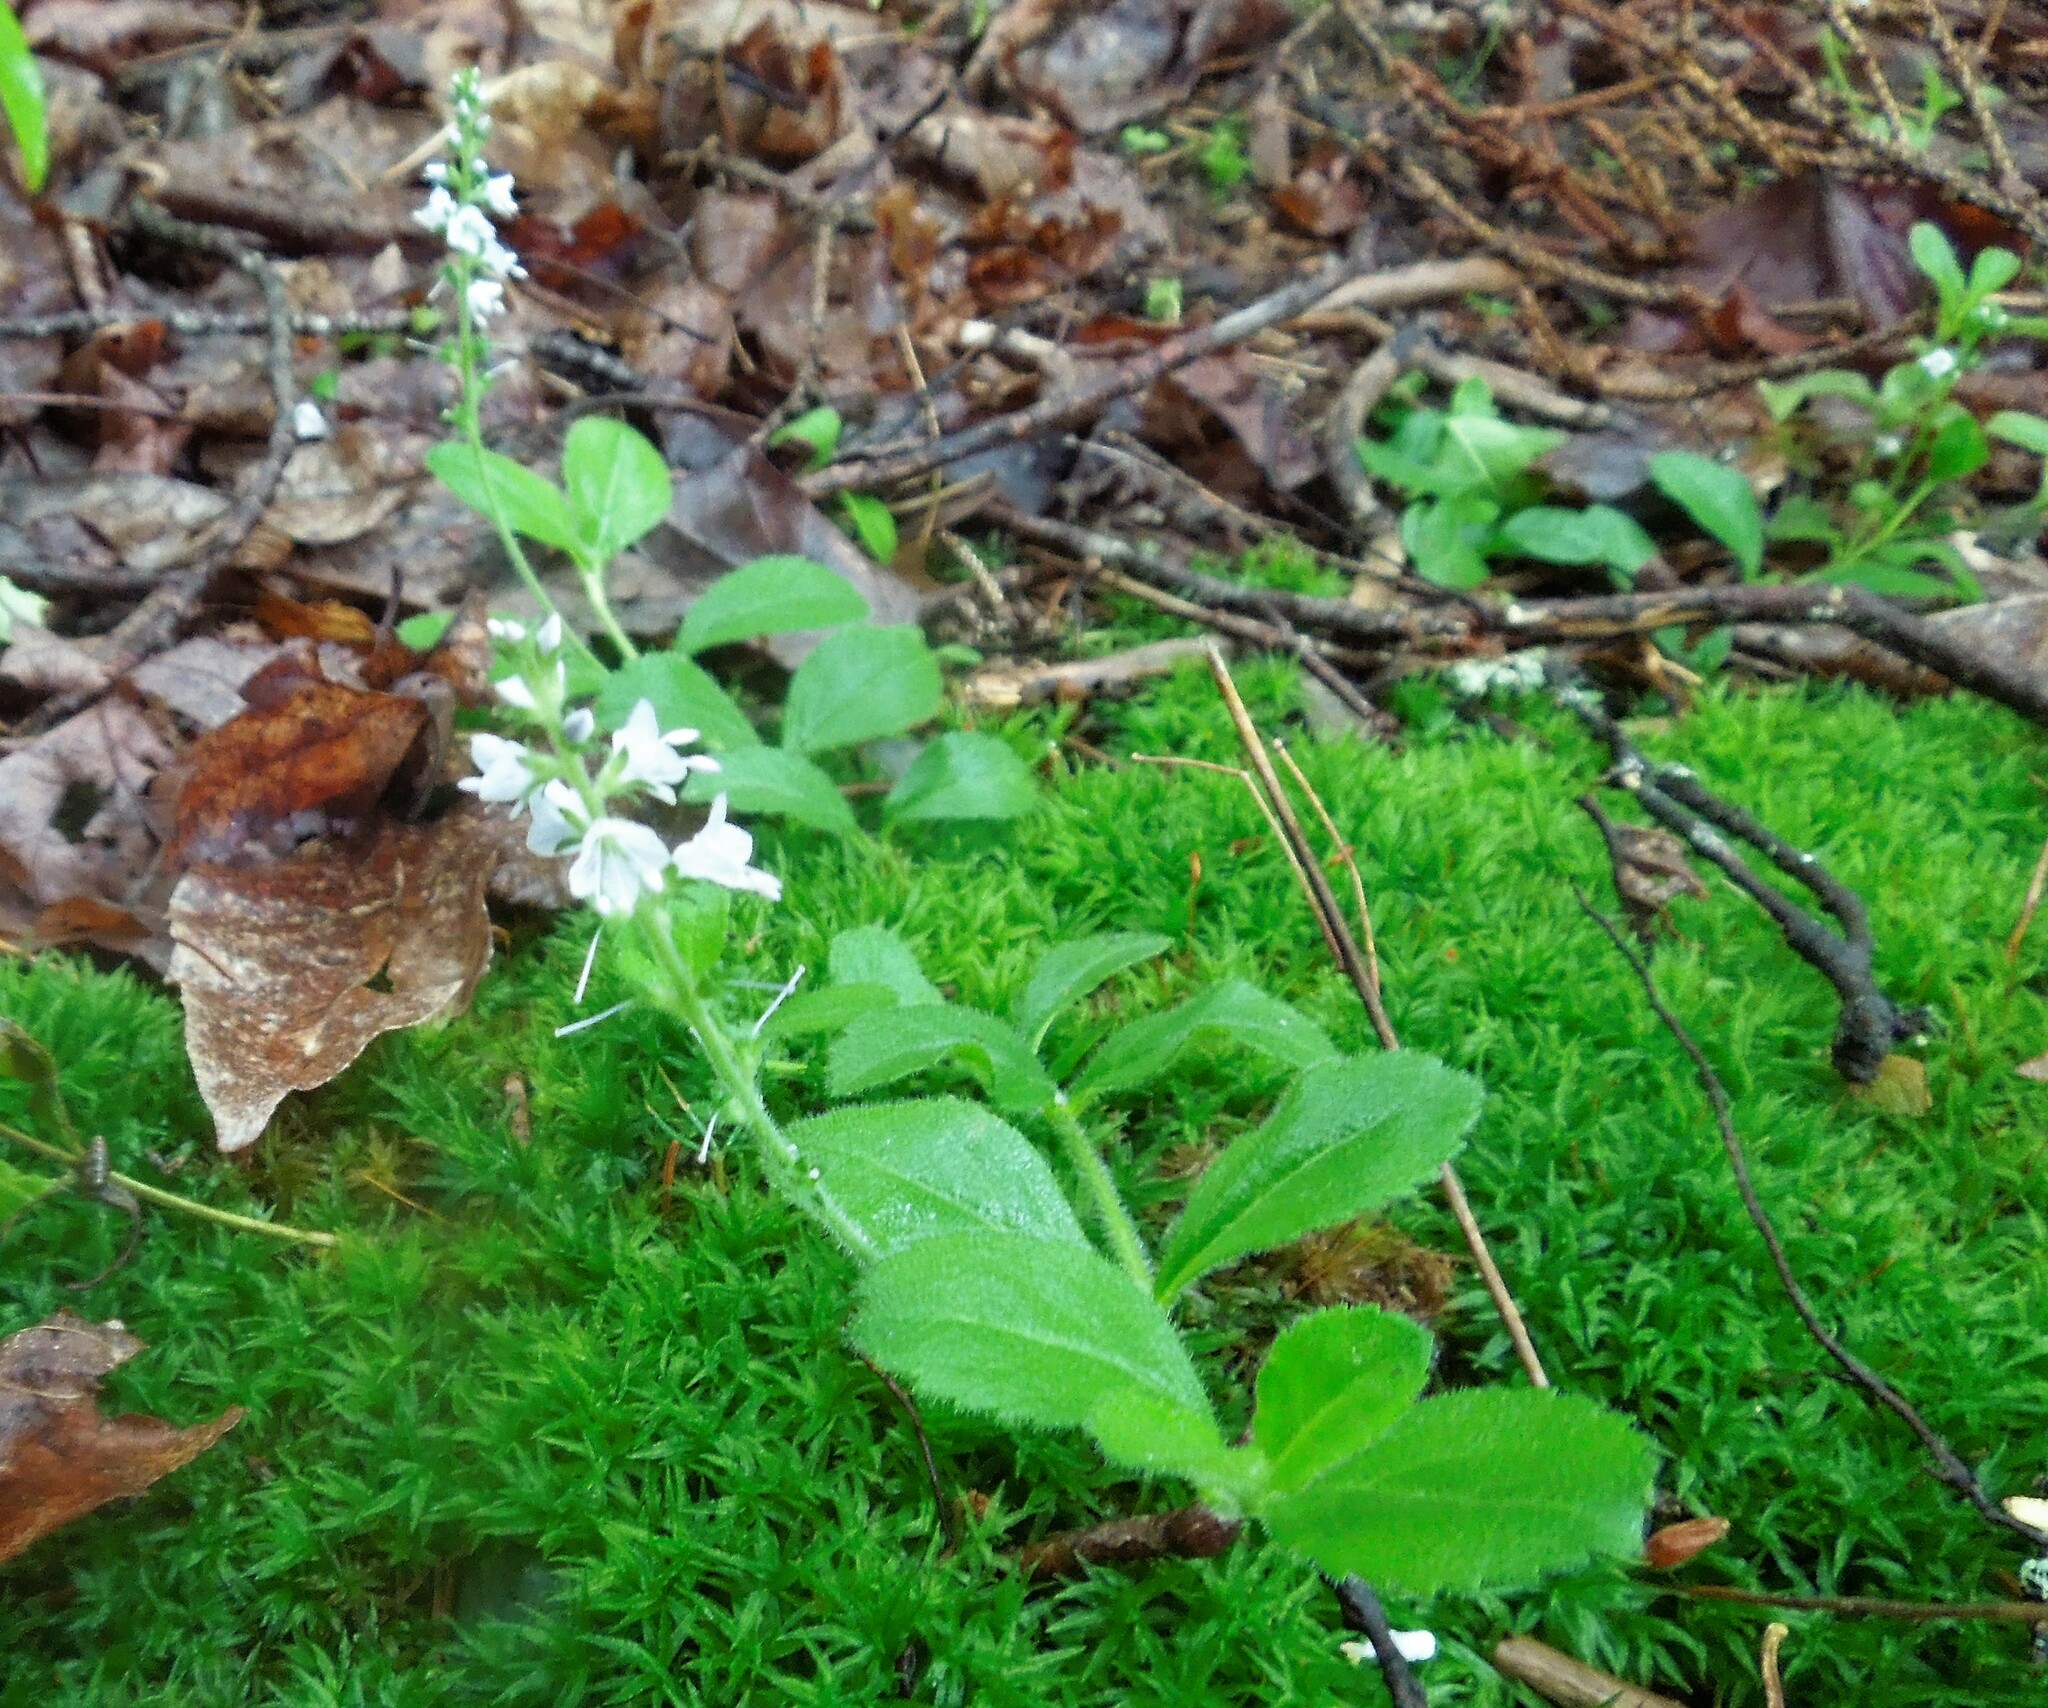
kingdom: Plantae
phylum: Tracheophyta
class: Magnoliopsida
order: Lamiales
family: Plantaginaceae
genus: Veronica
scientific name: Veronica officinalis
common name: Common speedwell
